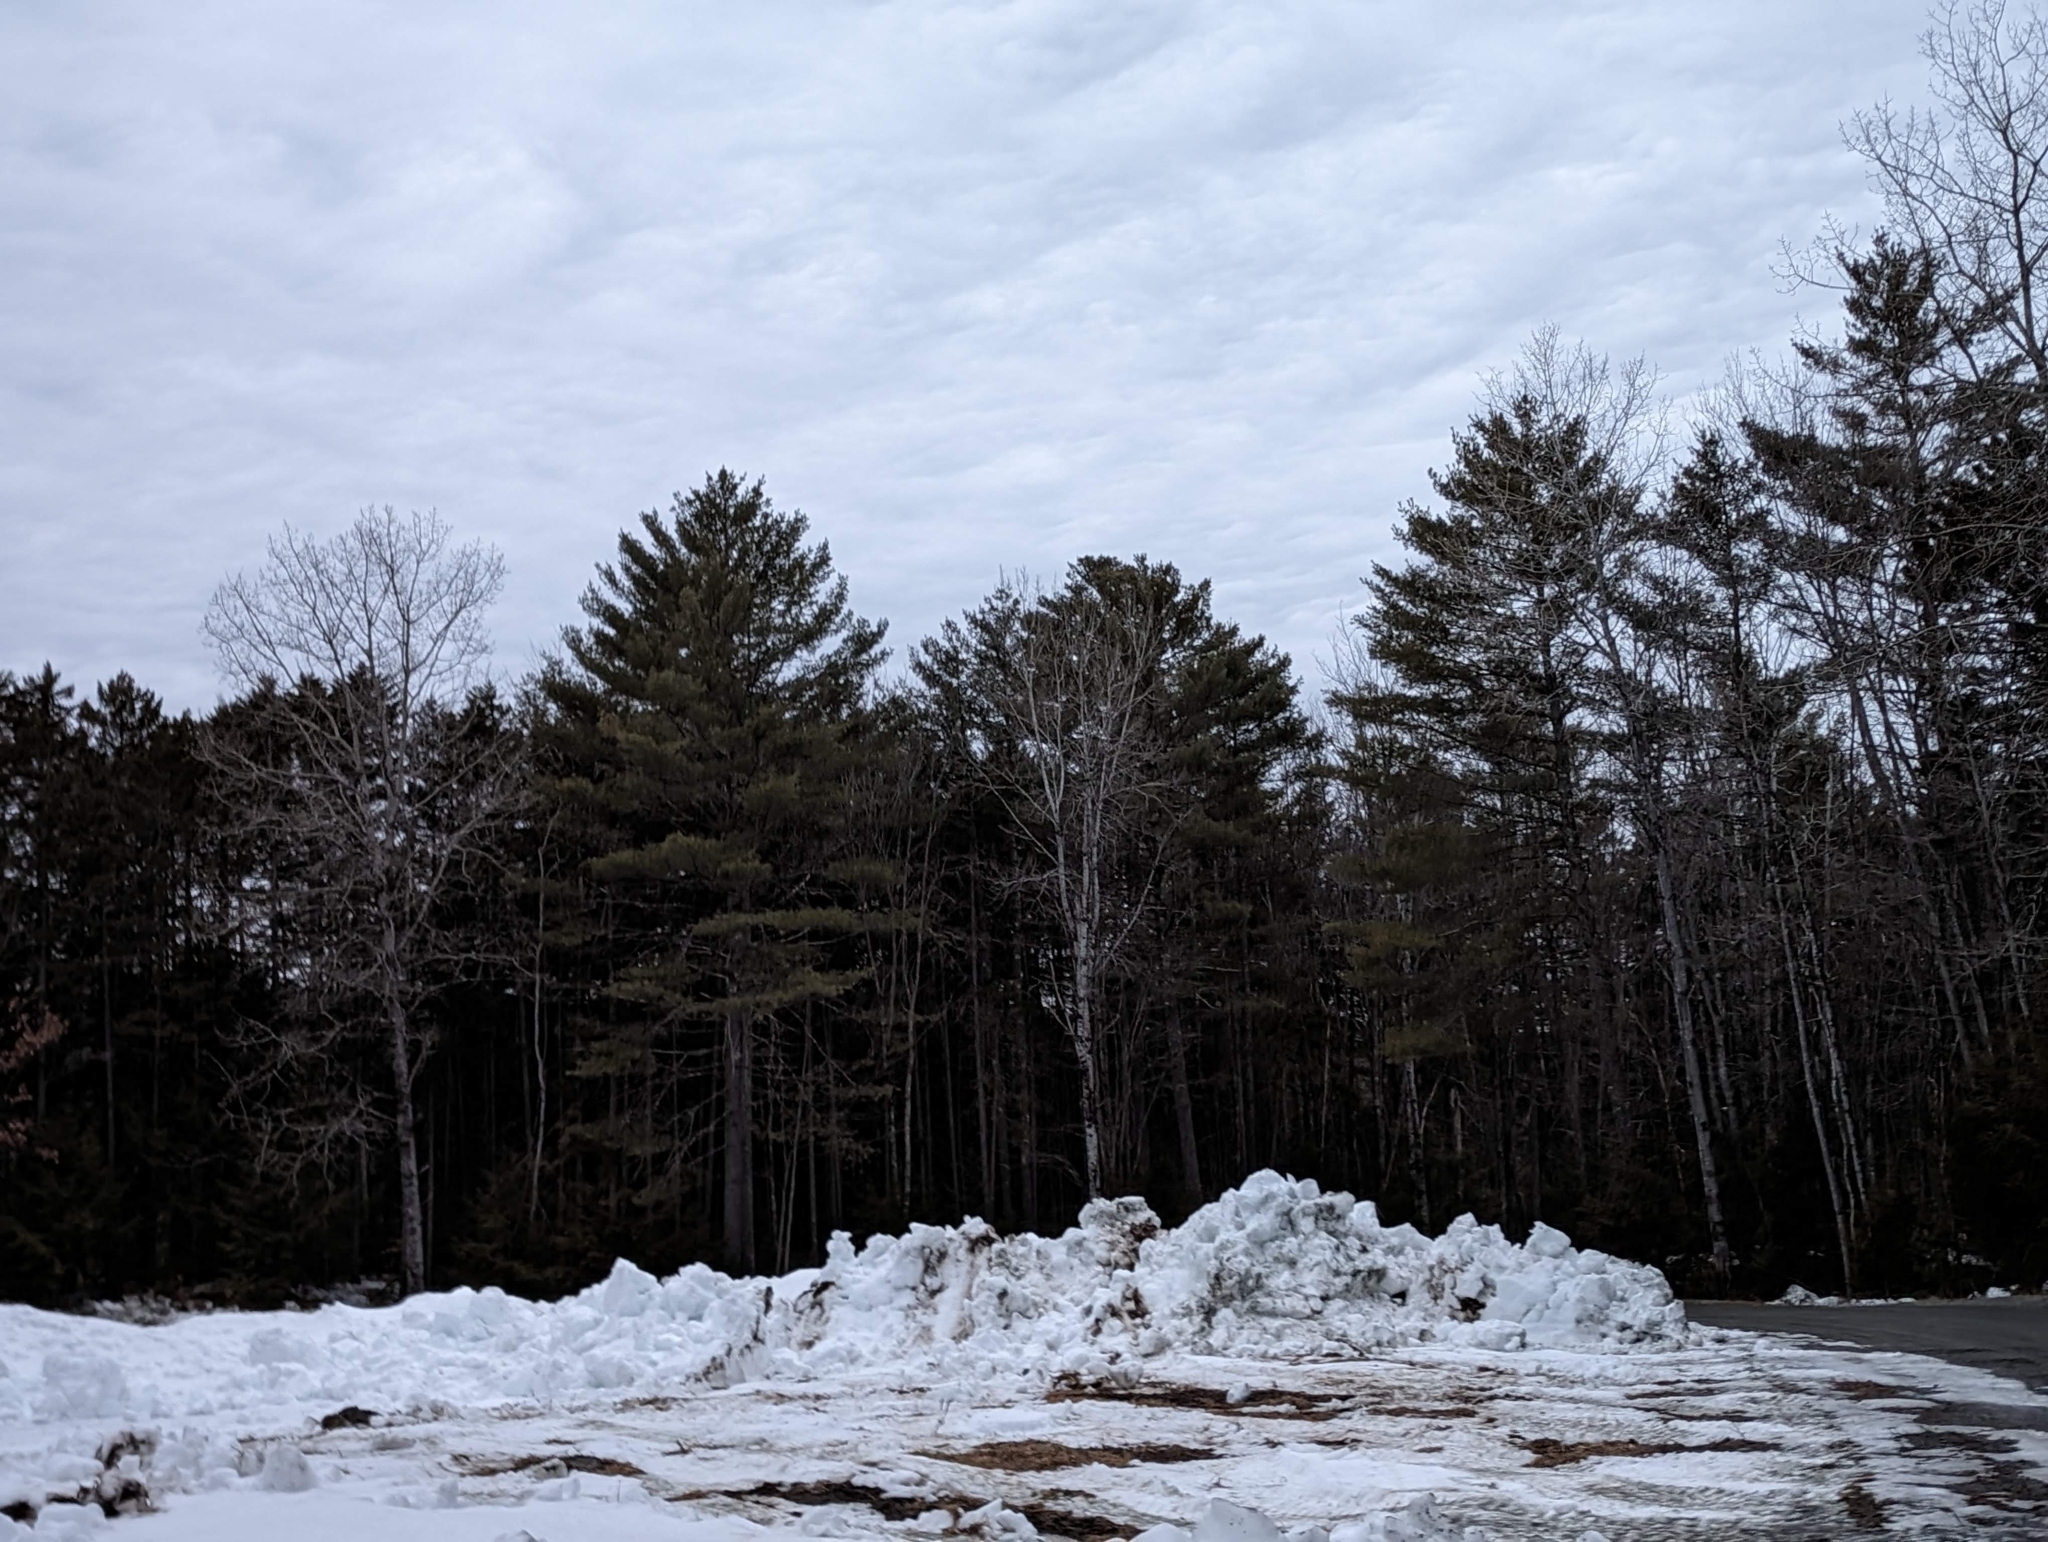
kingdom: Plantae
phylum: Tracheophyta
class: Pinopsida
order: Pinales
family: Pinaceae
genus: Pinus
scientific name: Pinus strobus
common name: Weymouth pine
